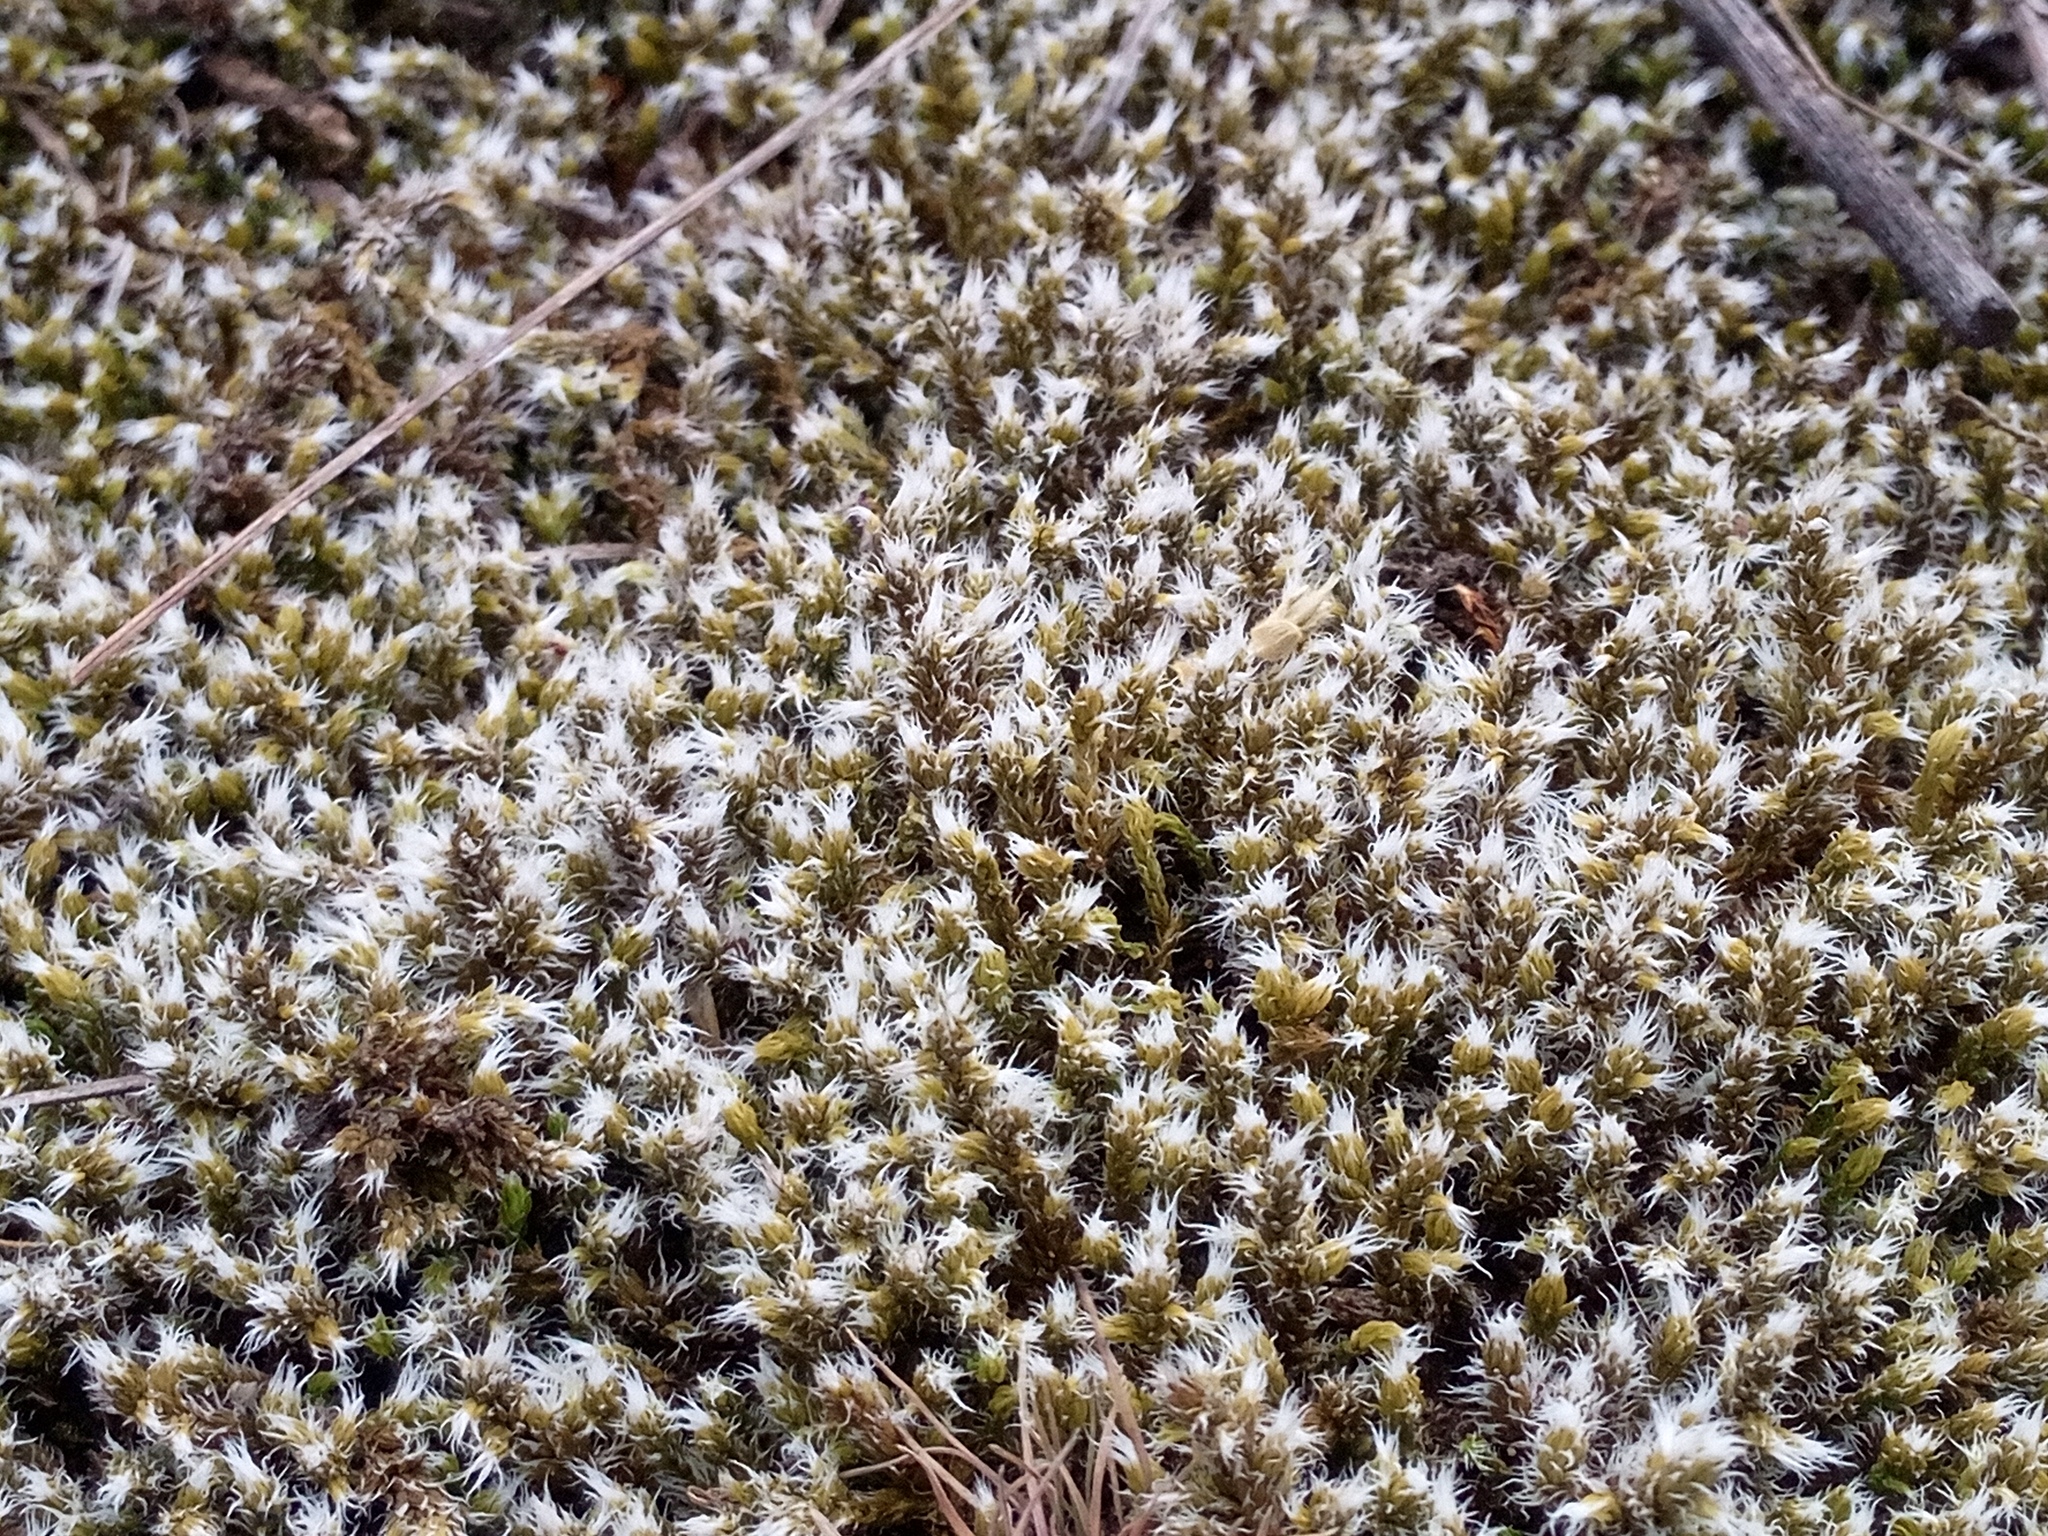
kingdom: Plantae
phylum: Bryophyta
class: Bryopsida
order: Grimmiales
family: Grimmiaceae
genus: Racomitrium
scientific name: Racomitrium lanuginosum
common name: Hoary rock moss
